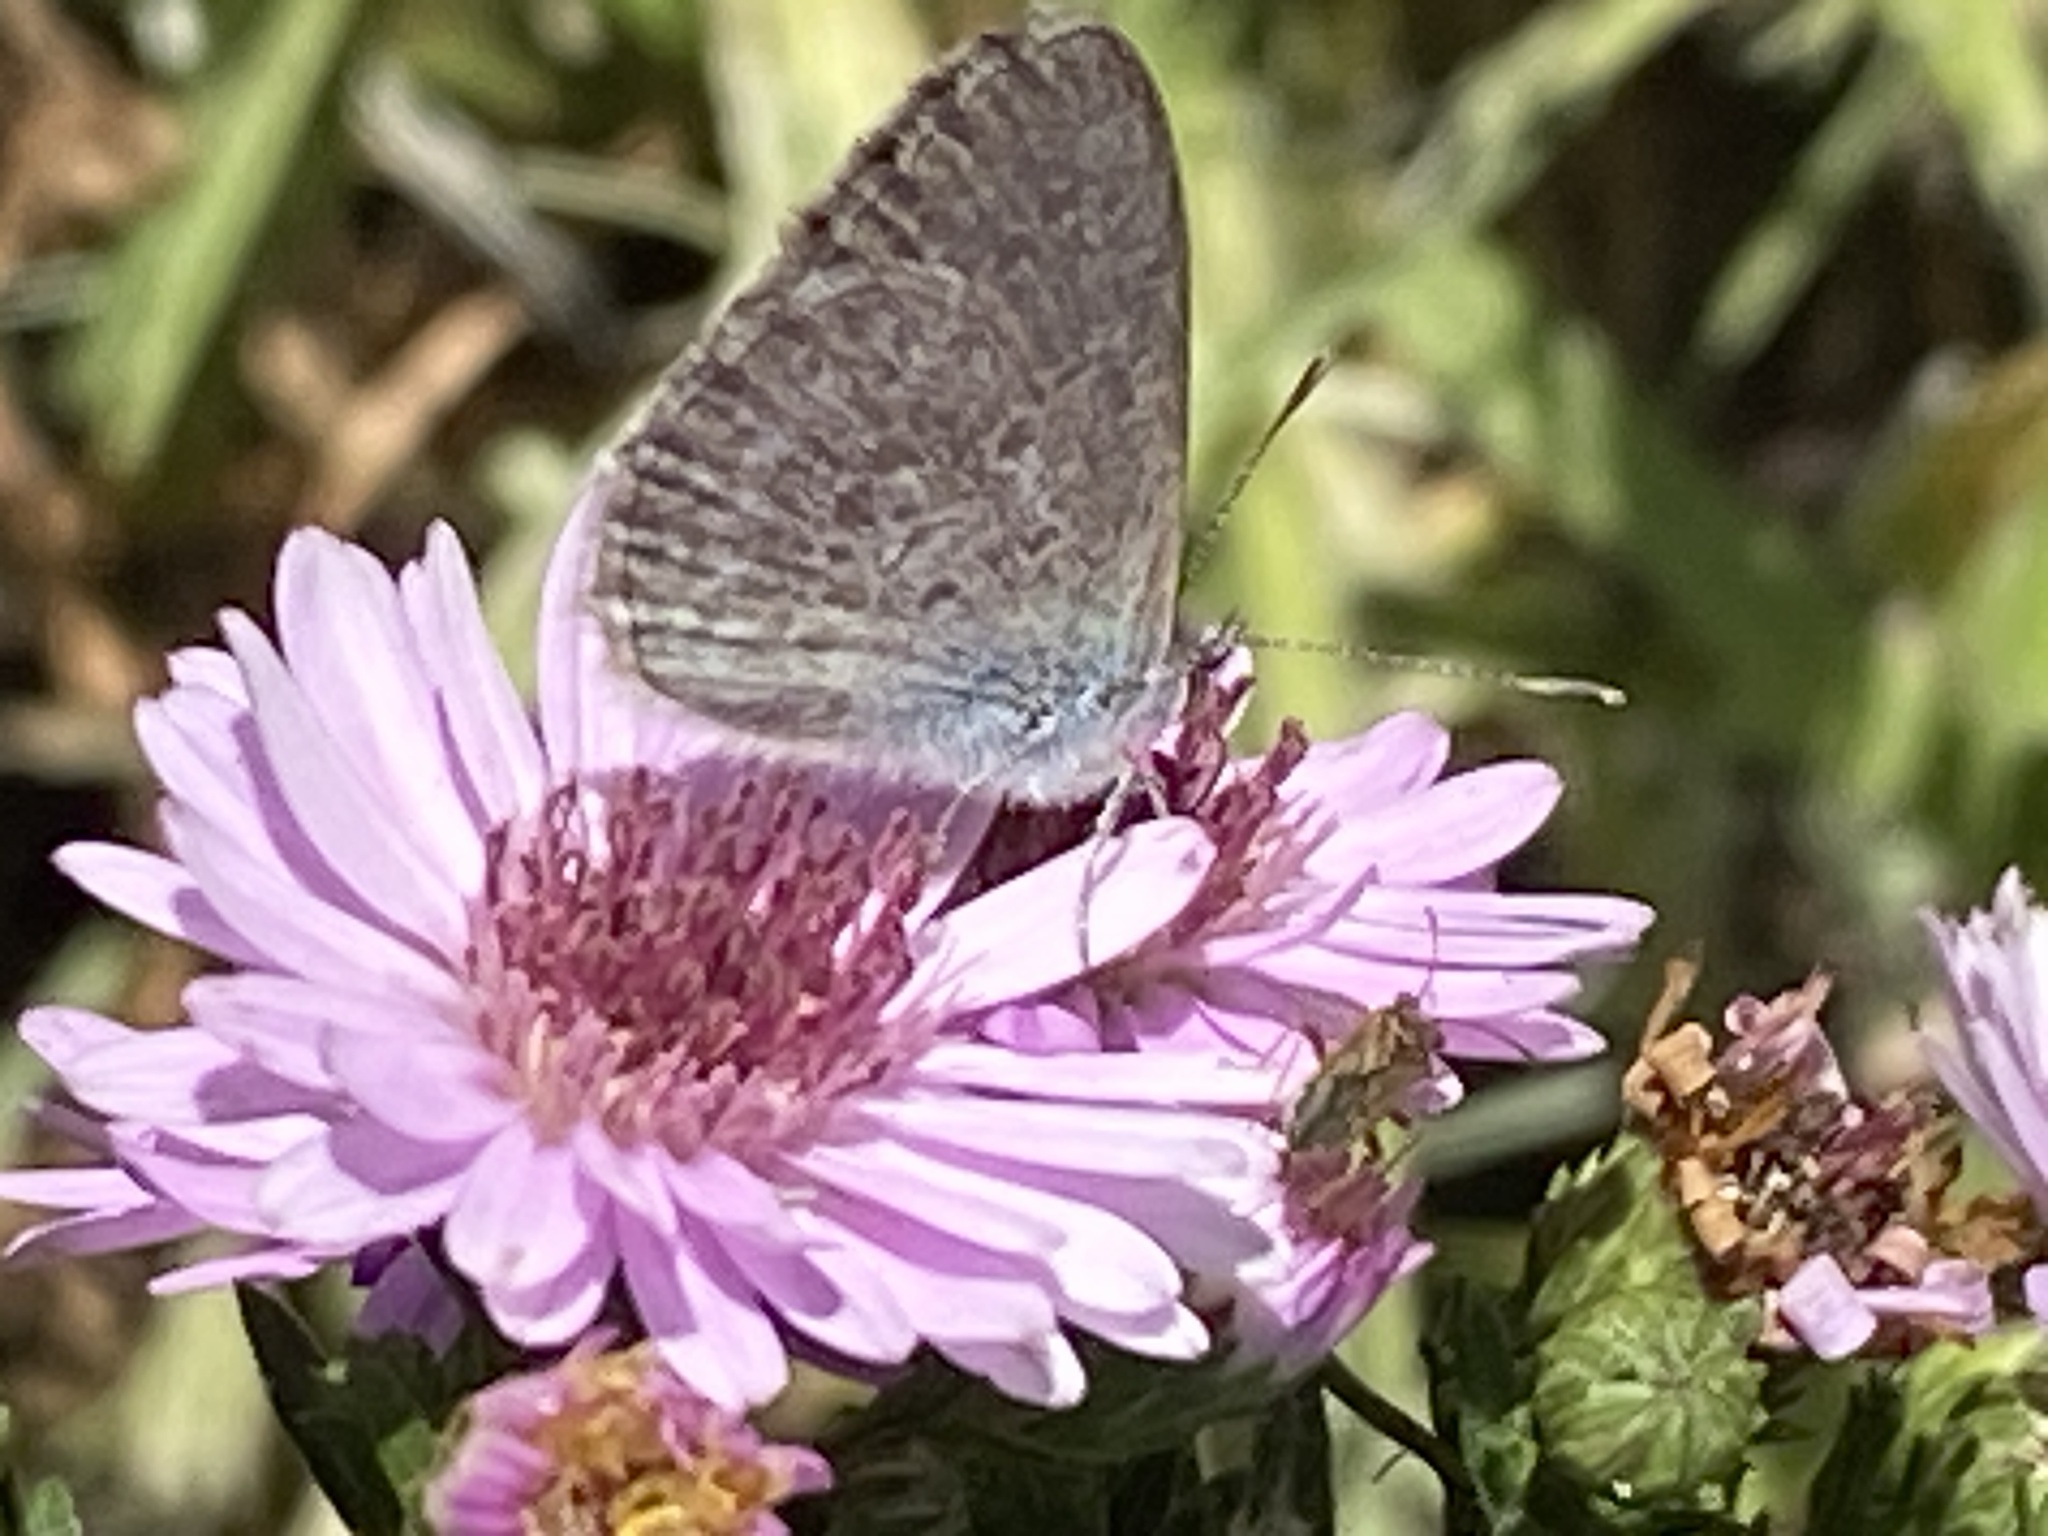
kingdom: Animalia
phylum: Arthropoda
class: Insecta
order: Lepidoptera
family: Lycaenidae
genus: Zizina
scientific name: Zizina labradus
